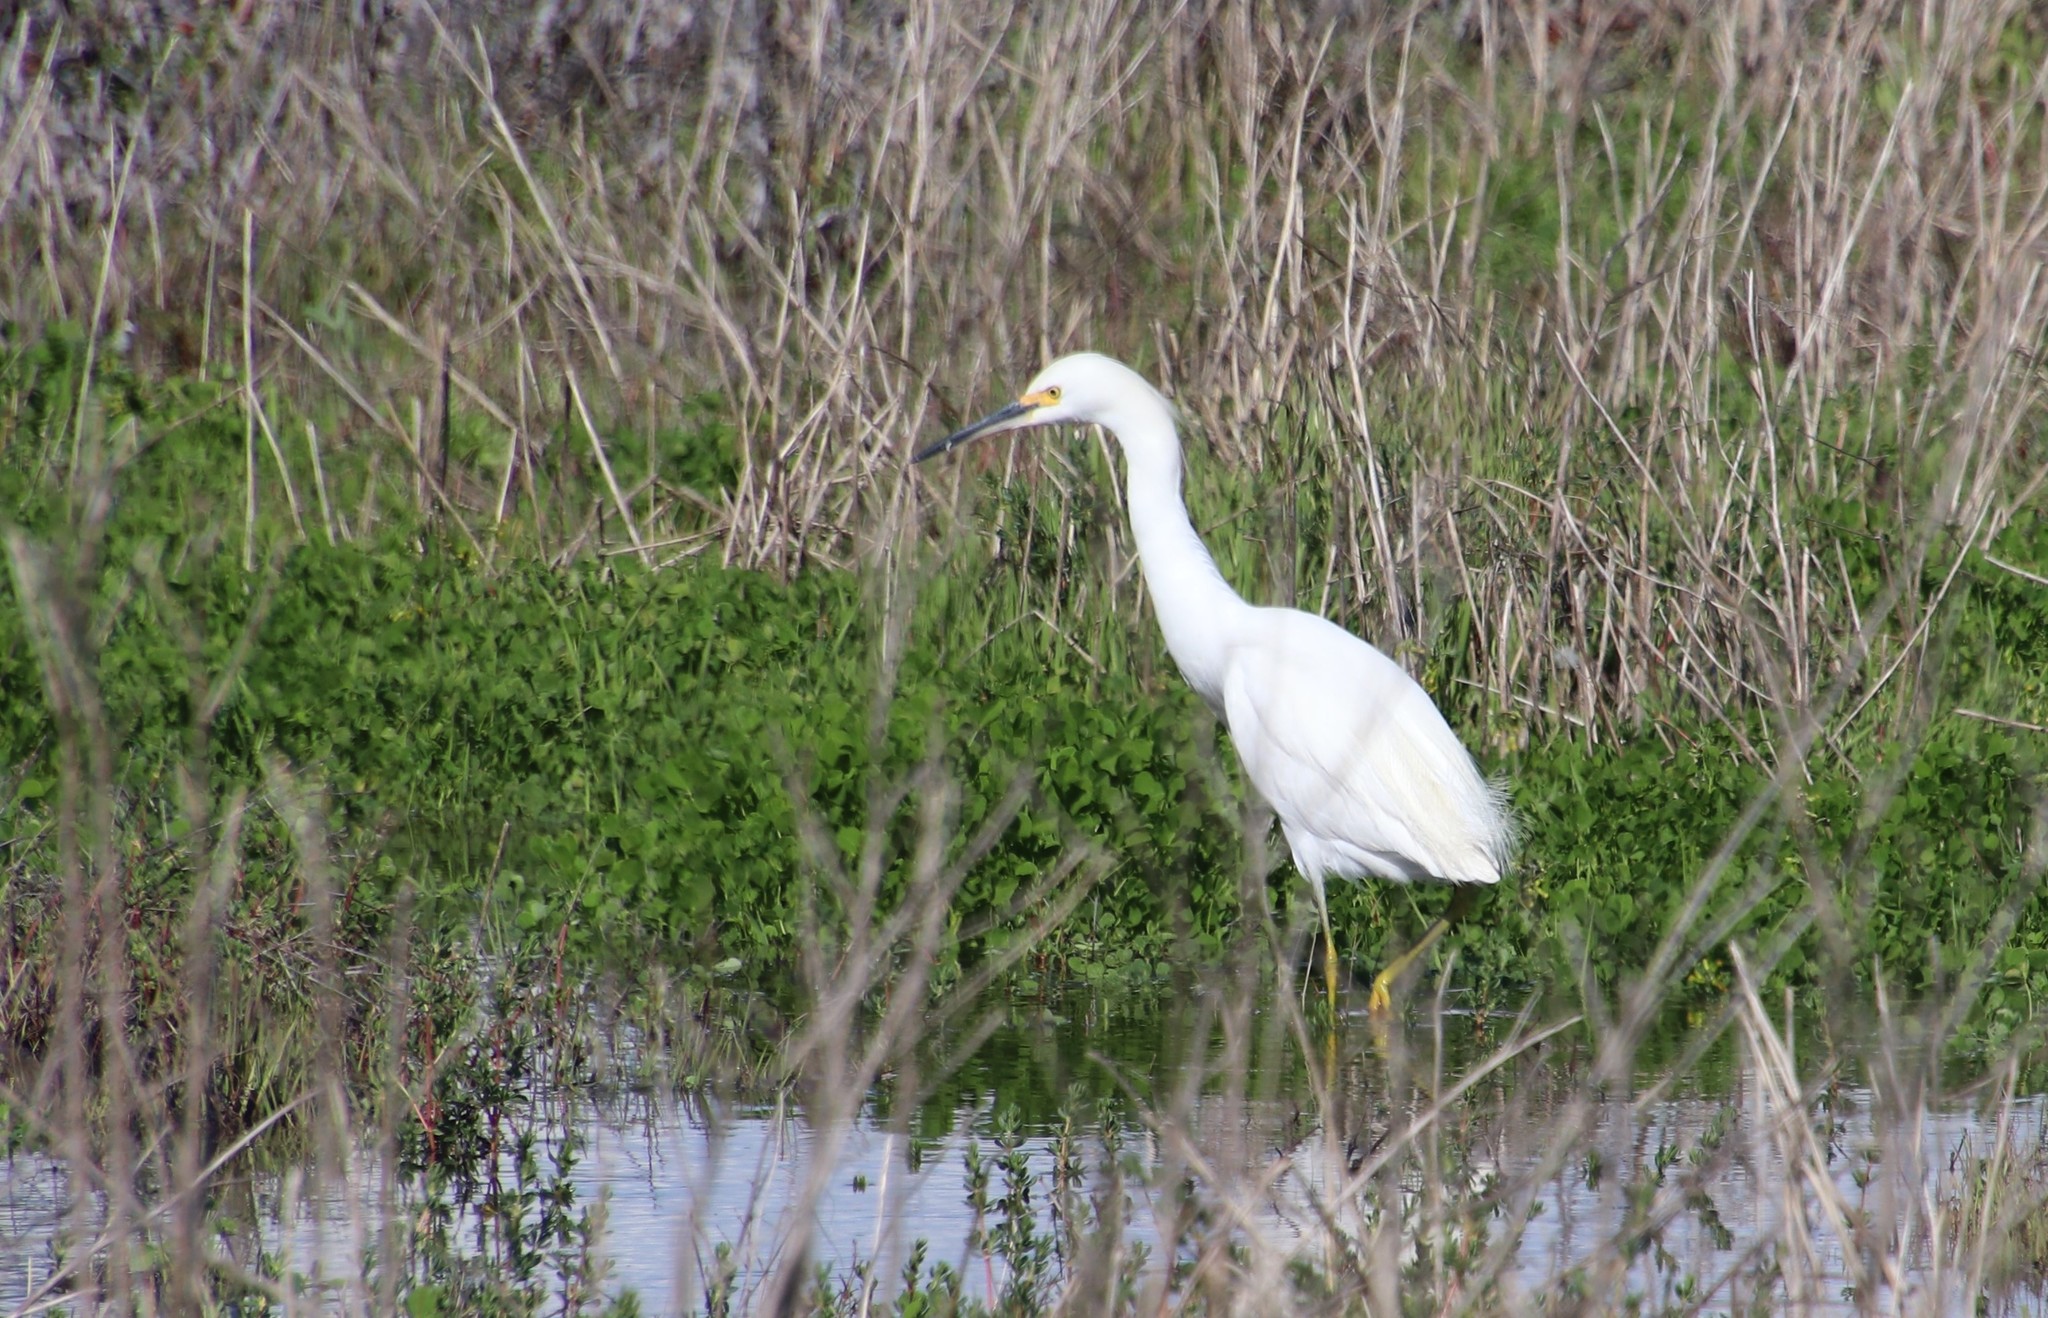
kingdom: Animalia
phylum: Chordata
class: Aves
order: Pelecaniformes
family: Ardeidae
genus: Egretta
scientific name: Egretta thula
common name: Snowy egret
